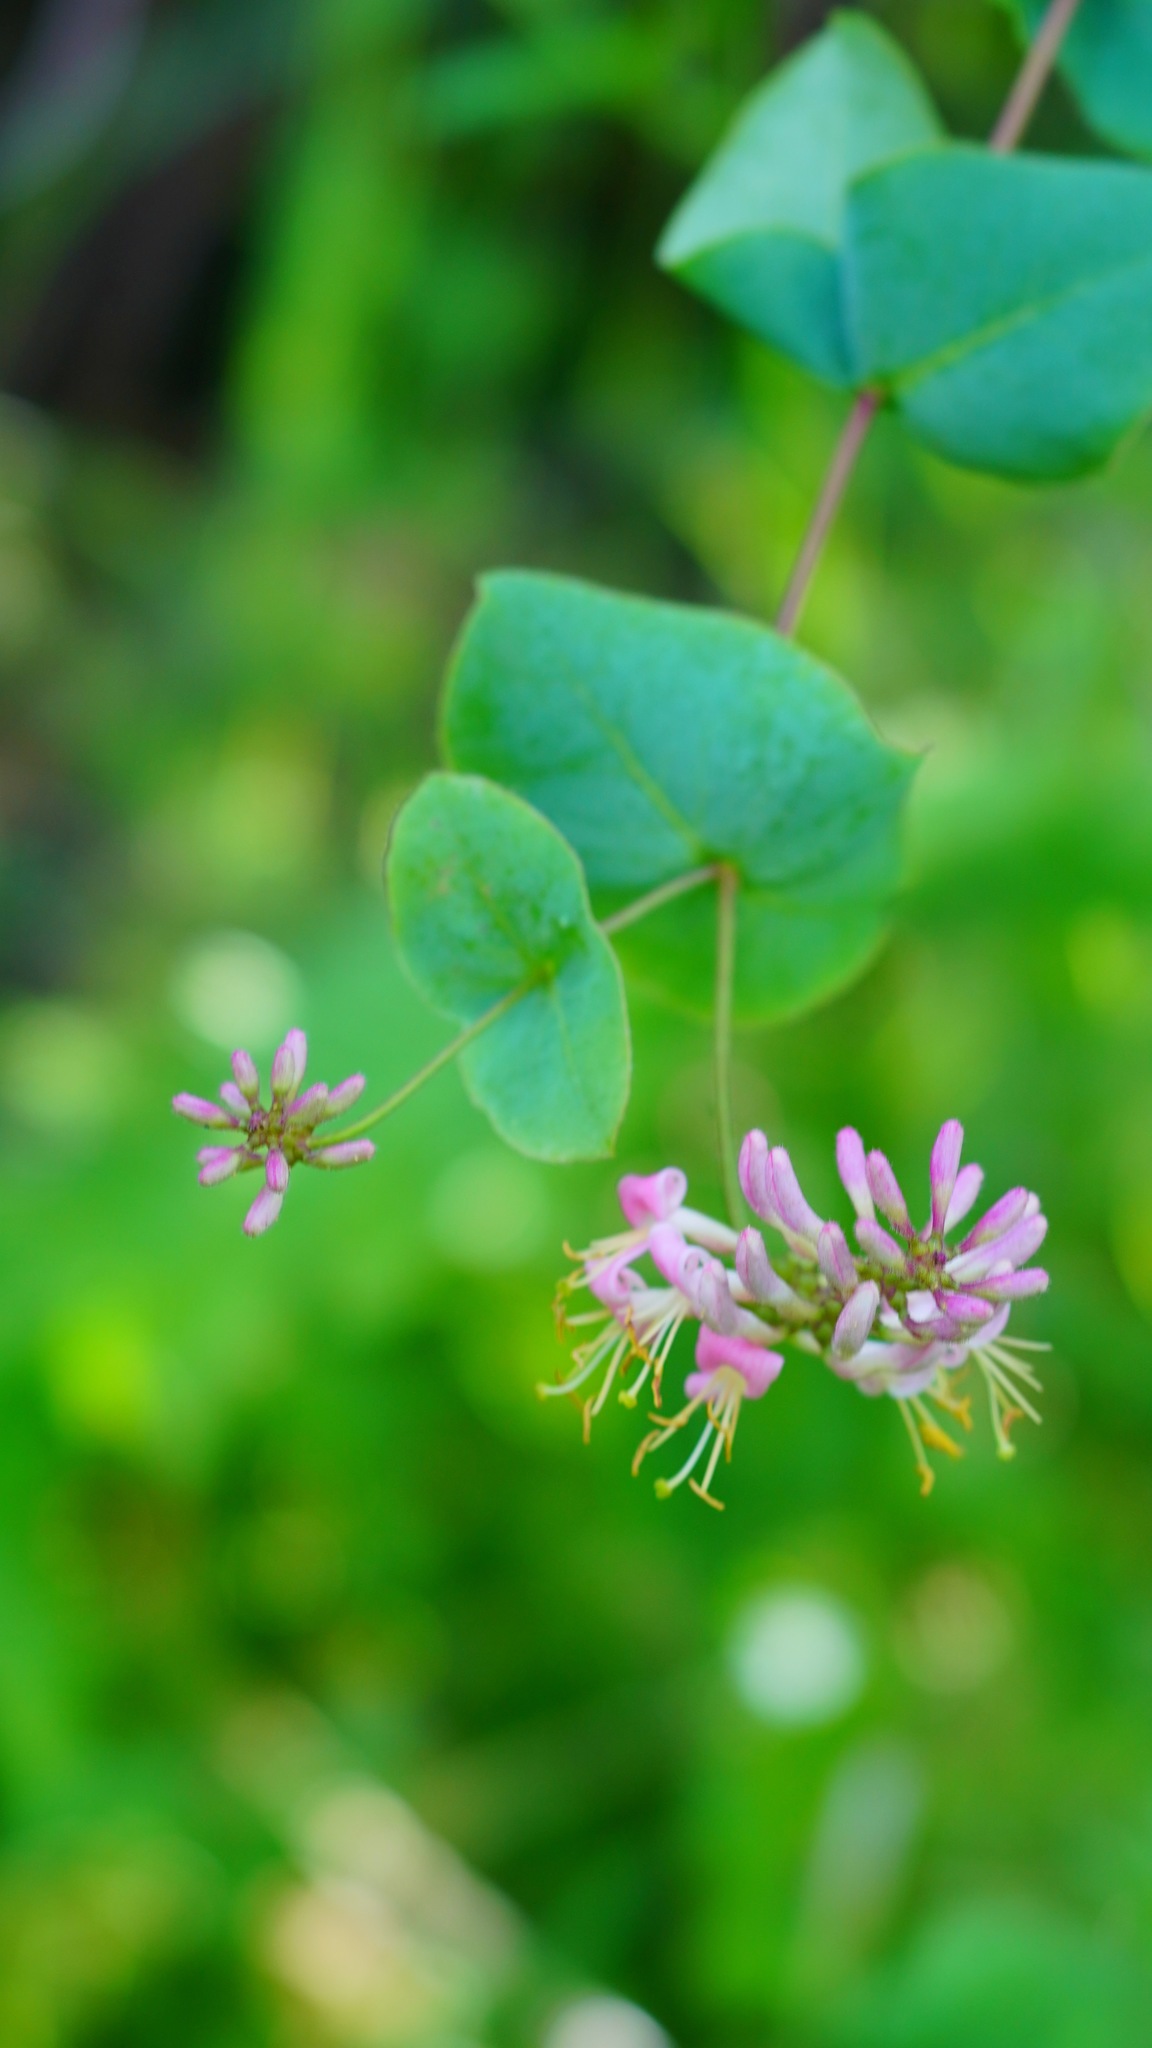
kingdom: Plantae
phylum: Tracheophyta
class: Magnoliopsida
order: Dipsacales
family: Caprifoliaceae
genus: Lonicera
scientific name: Lonicera hispidula
